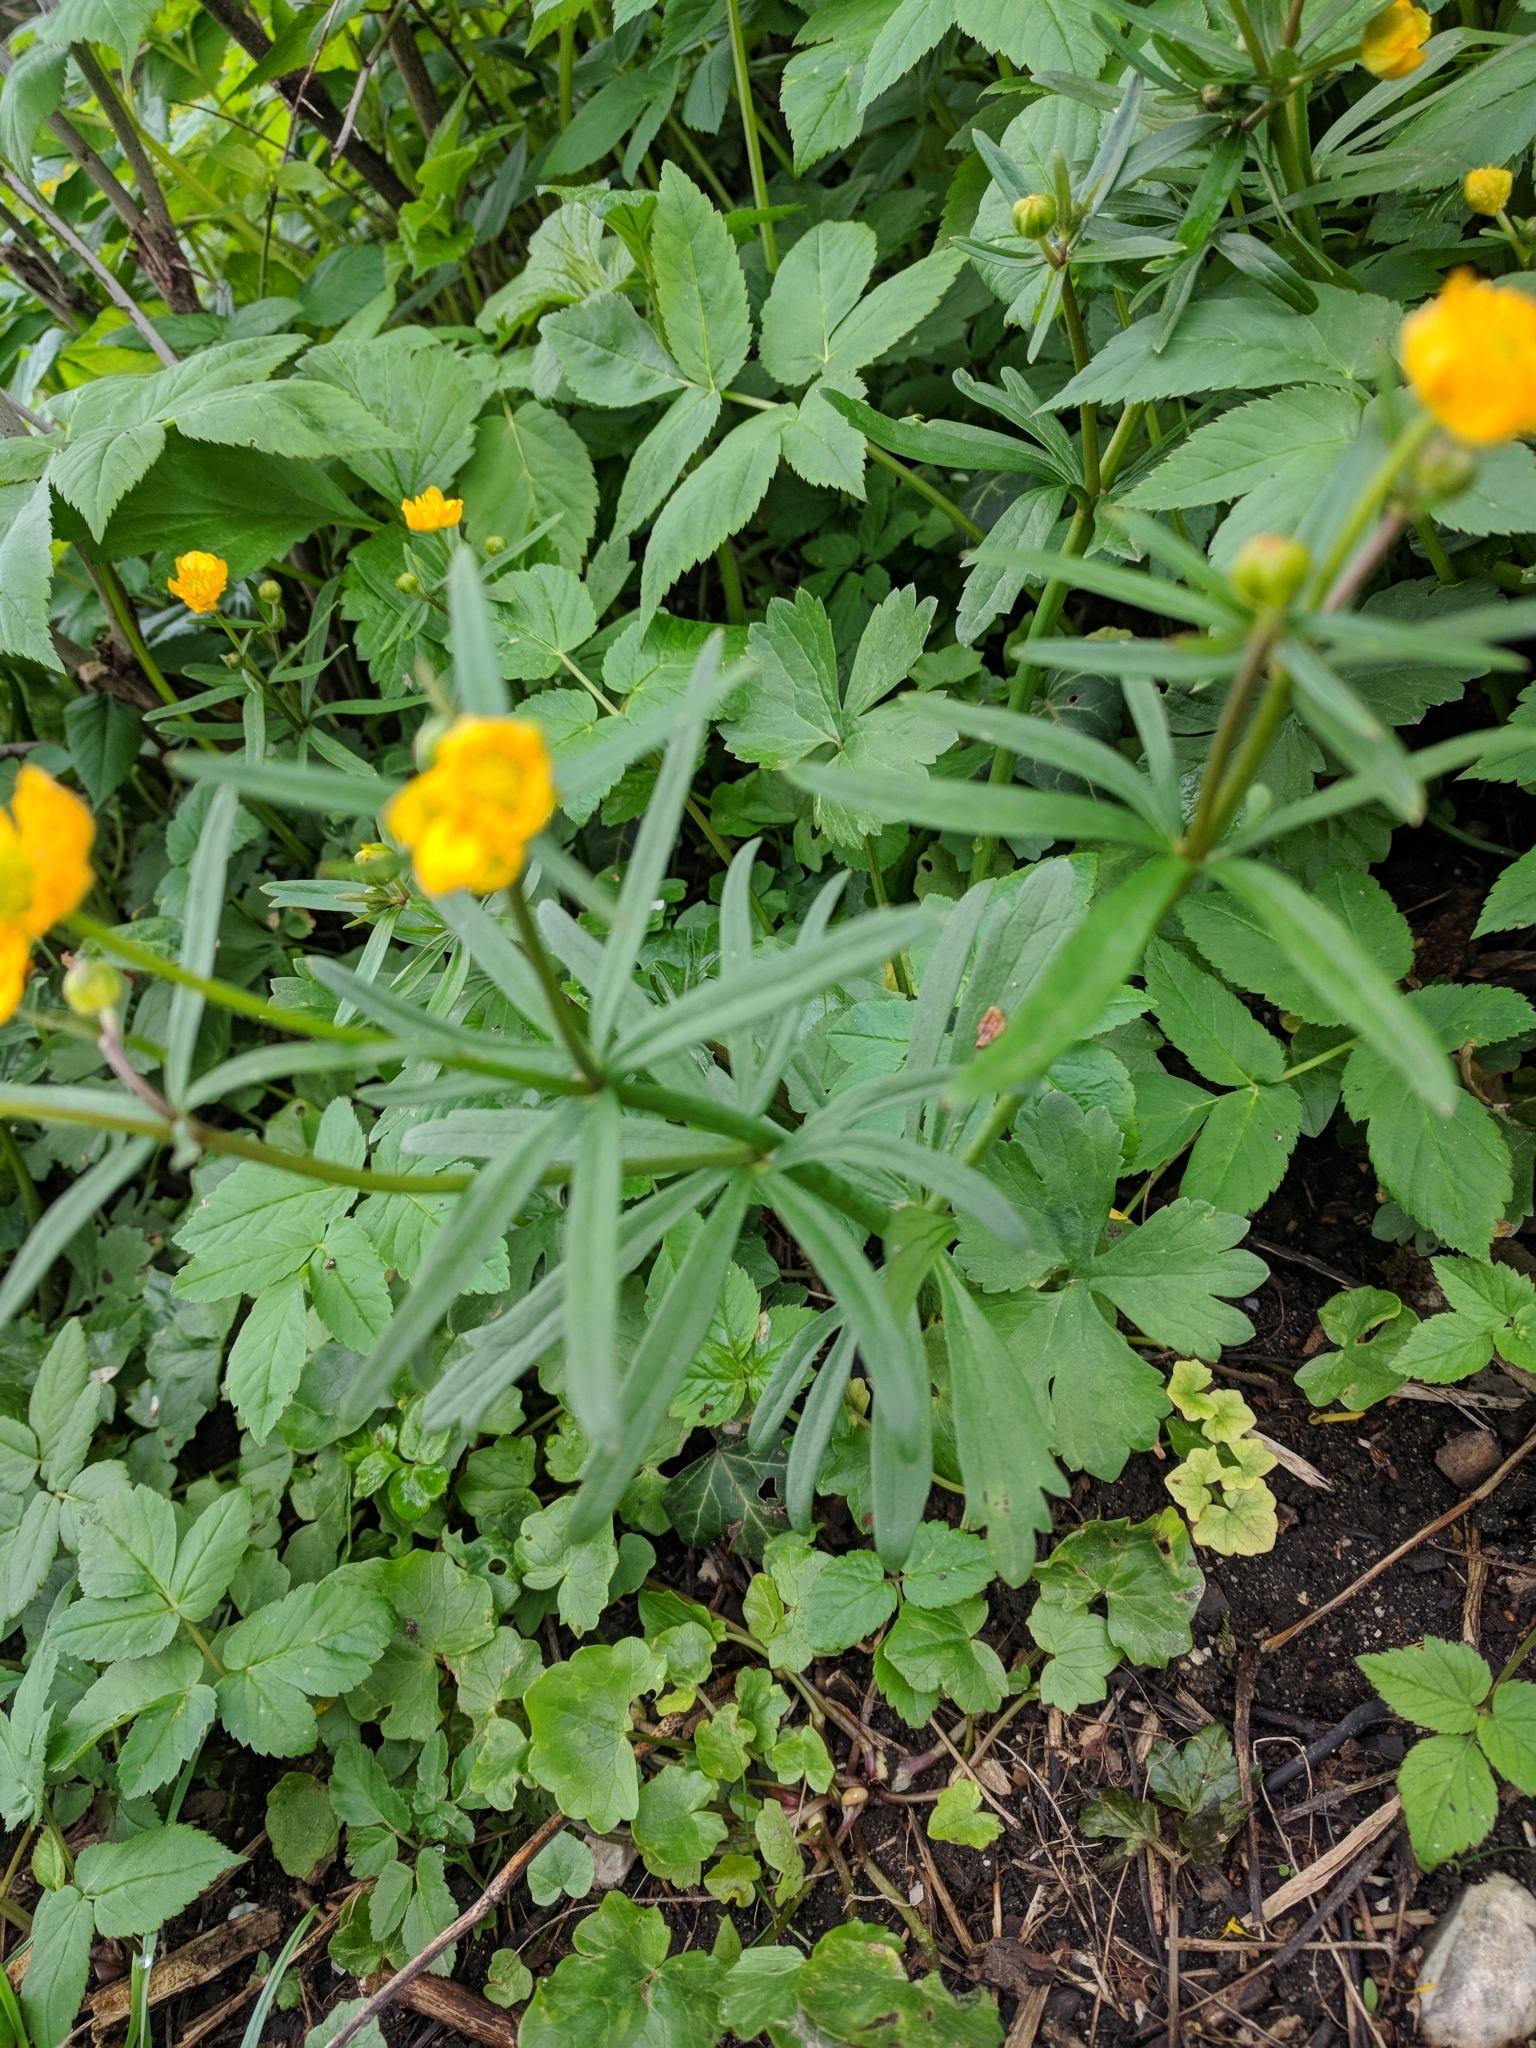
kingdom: Plantae
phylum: Tracheophyta
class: Magnoliopsida
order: Ranunculales
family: Ranunculaceae
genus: Ranunculus
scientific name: Ranunculus auricomus
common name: Goldilocks buttercup
